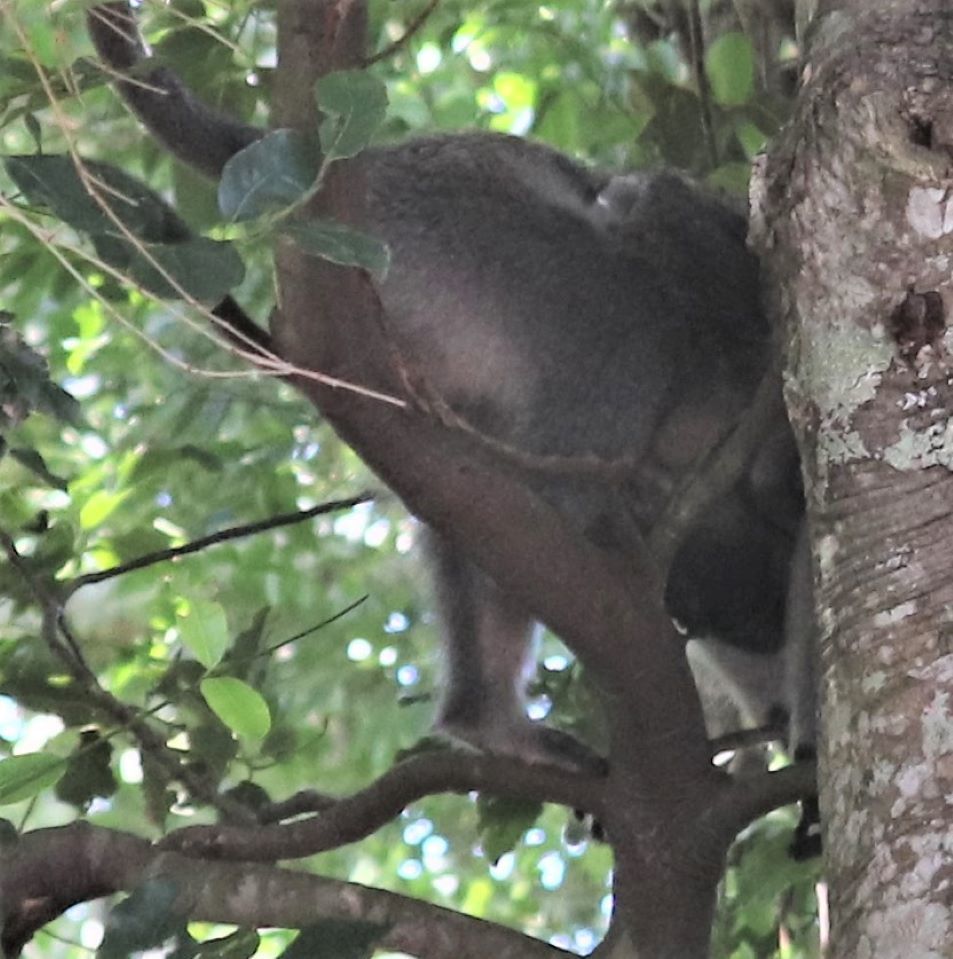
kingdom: Animalia
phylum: Chordata
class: Mammalia
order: Primates
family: Cercopithecidae
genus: Chlorocebus
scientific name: Chlorocebus pygerythrus
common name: Vervet monkey
